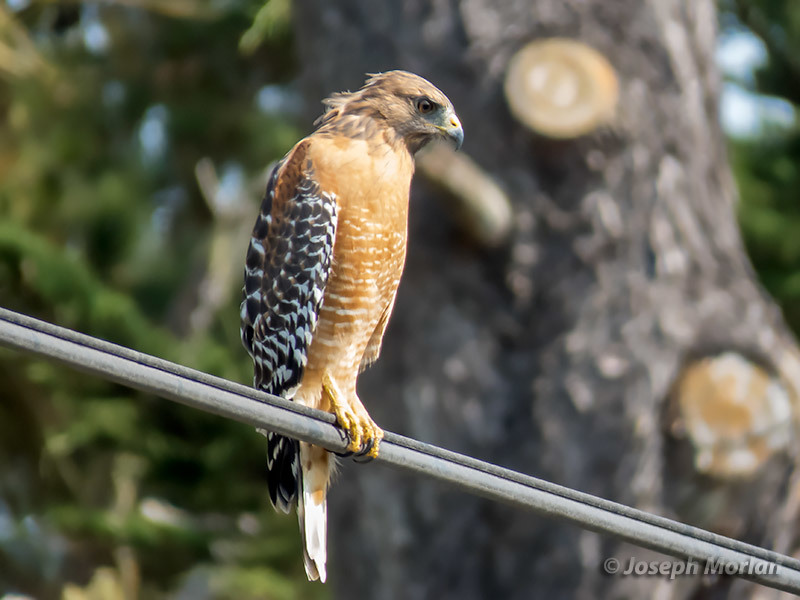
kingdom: Animalia
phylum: Chordata
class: Aves
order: Accipitriformes
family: Accipitridae
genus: Buteo
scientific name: Buteo lineatus
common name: Red-shouldered hawk
